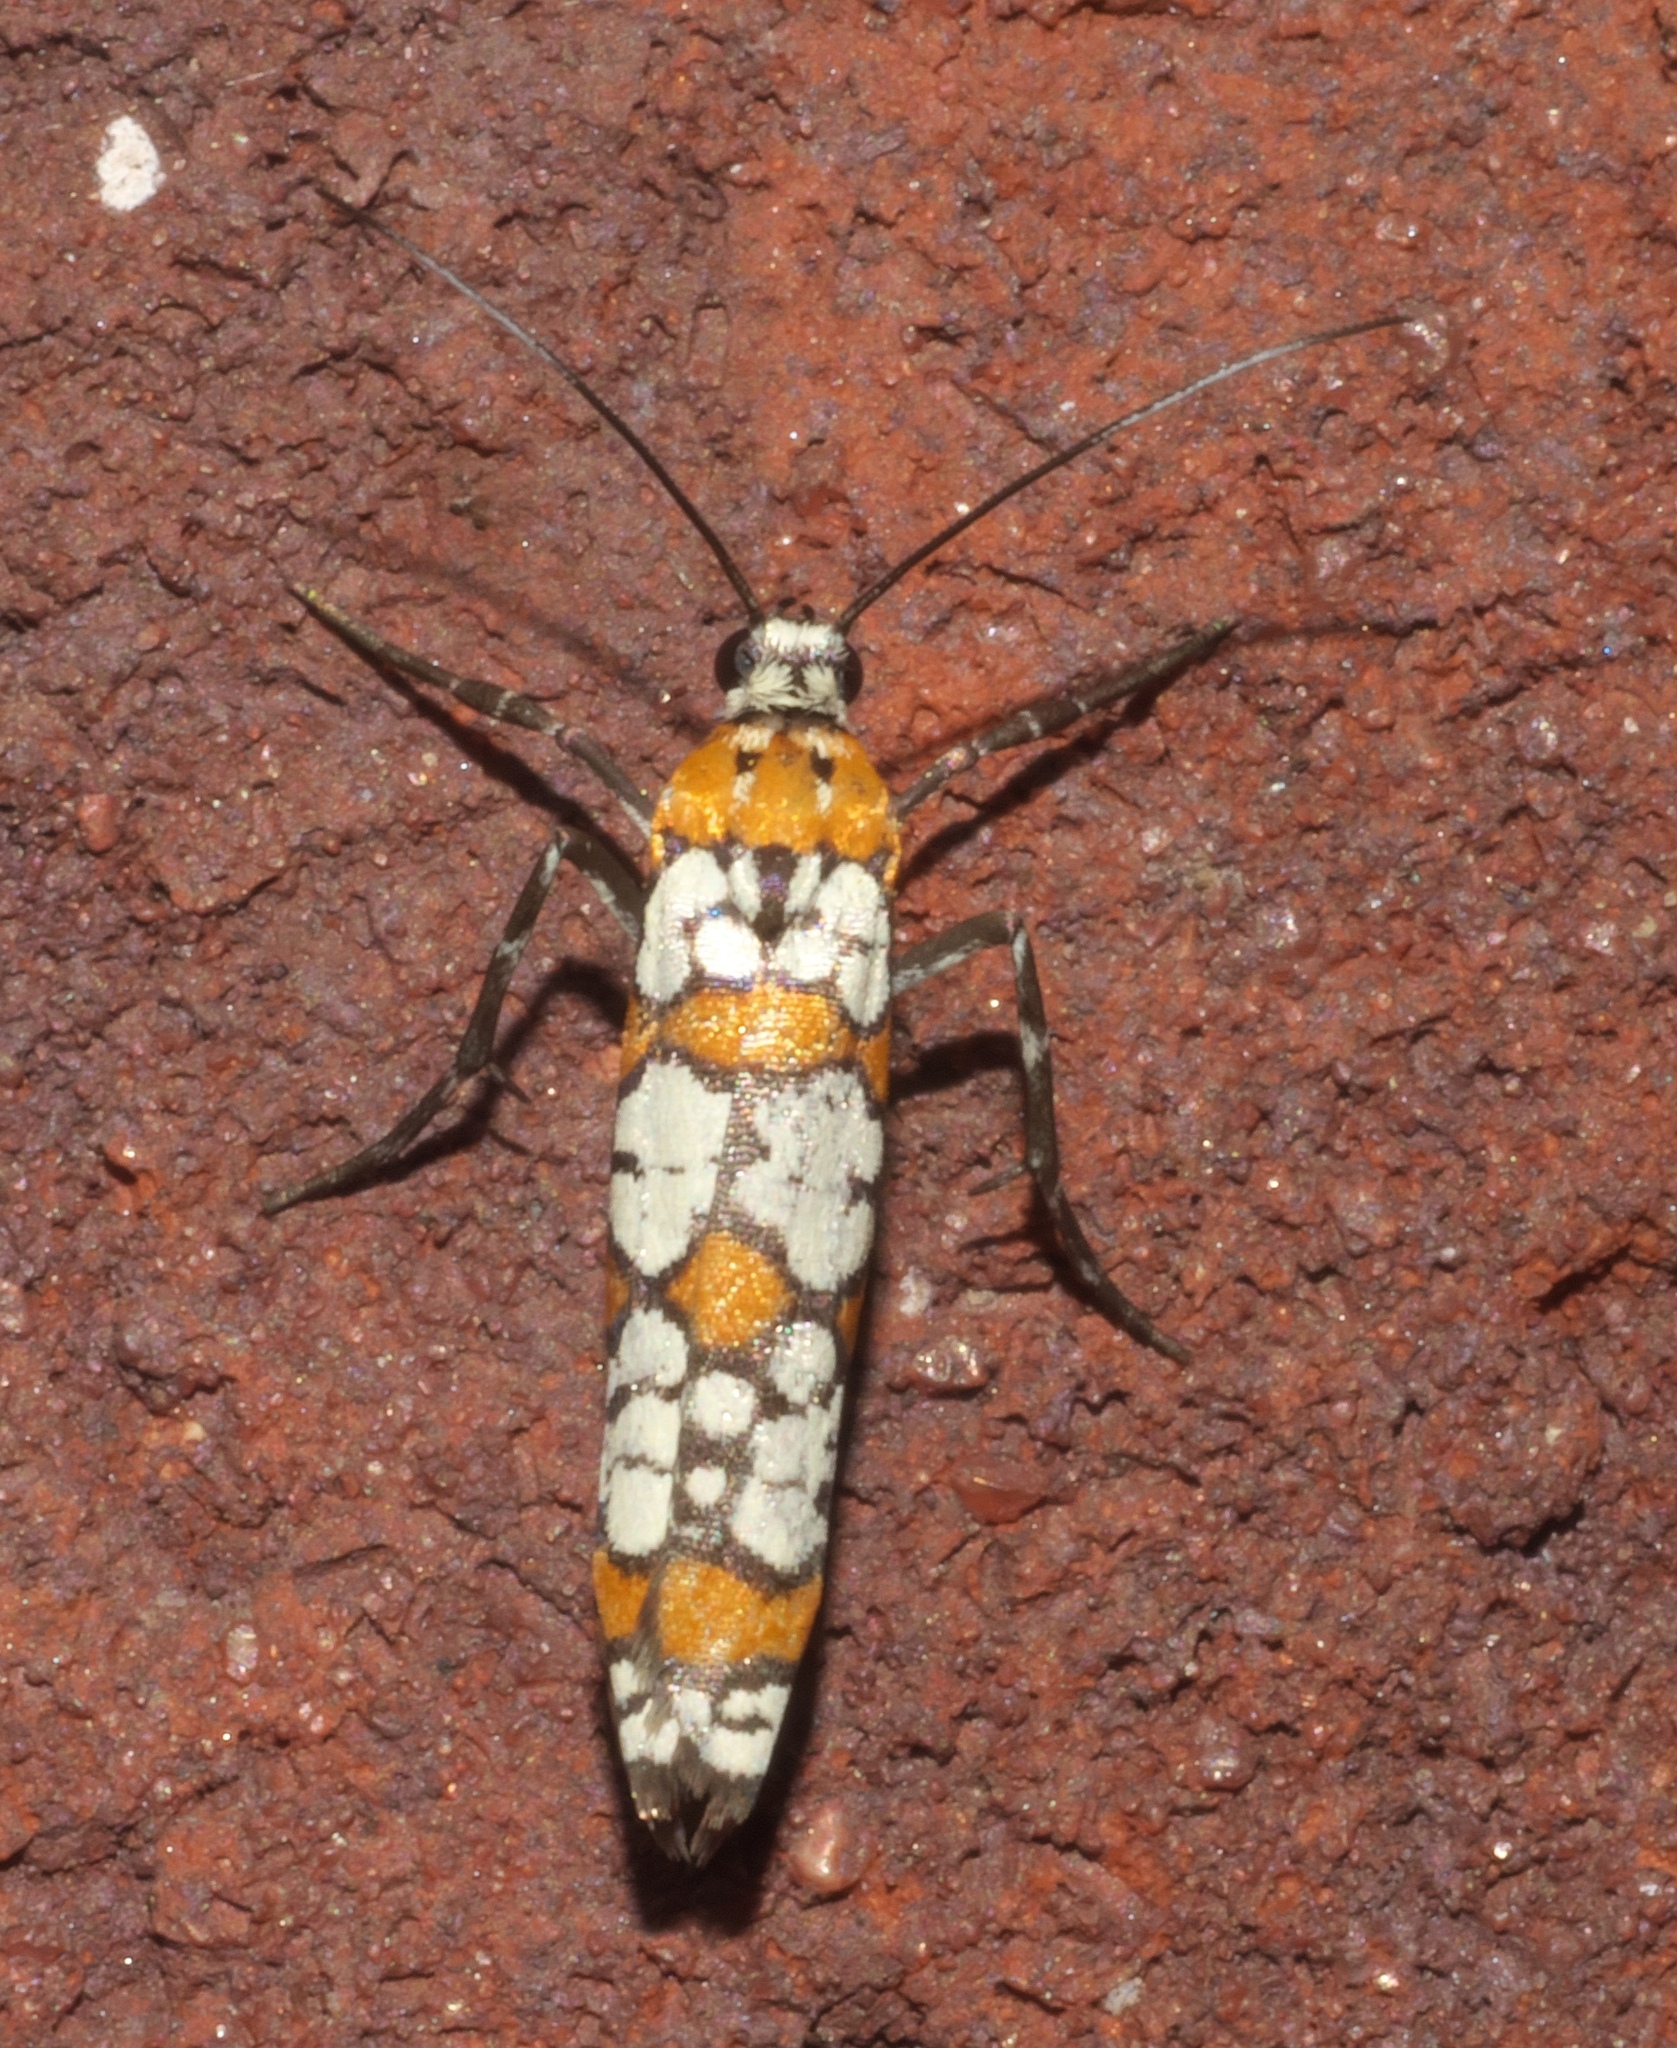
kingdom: Animalia
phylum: Arthropoda
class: Insecta
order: Lepidoptera
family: Attevidae
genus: Atteva
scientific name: Atteva punctella
